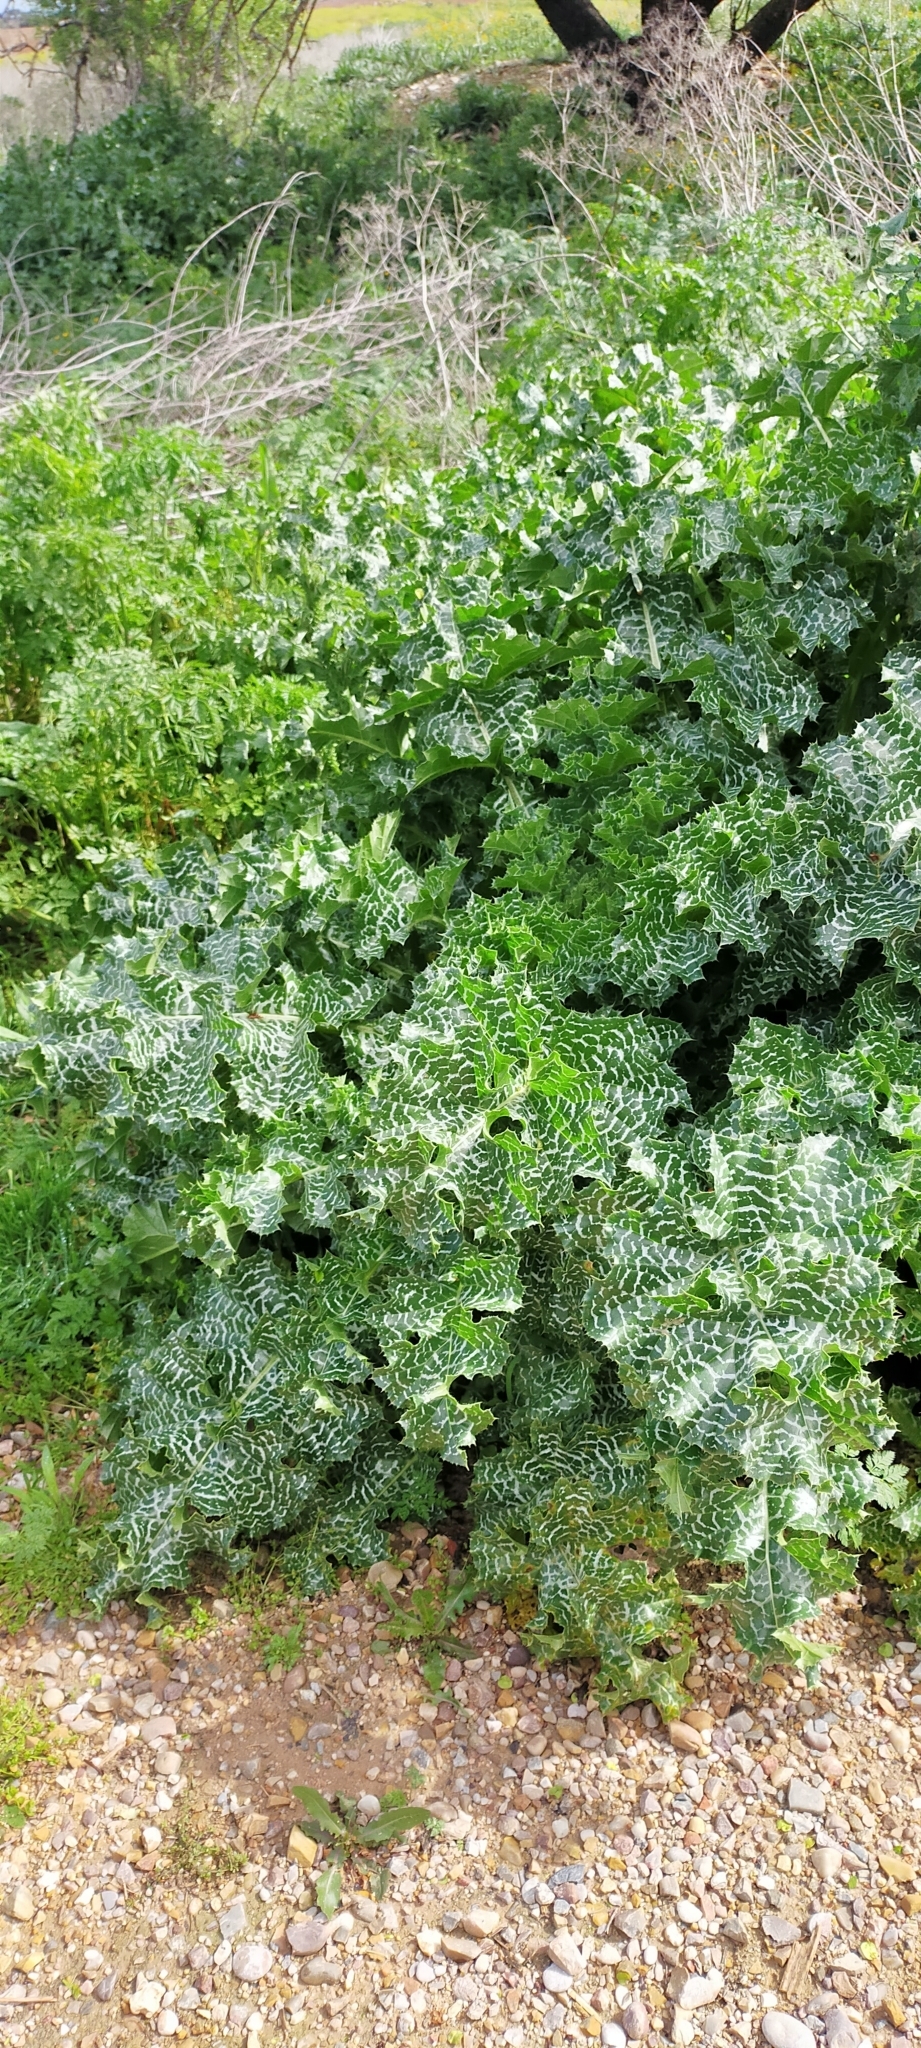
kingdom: Plantae
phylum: Tracheophyta
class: Magnoliopsida
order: Asterales
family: Asteraceae
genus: Silybum
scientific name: Silybum marianum
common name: Milk thistle
